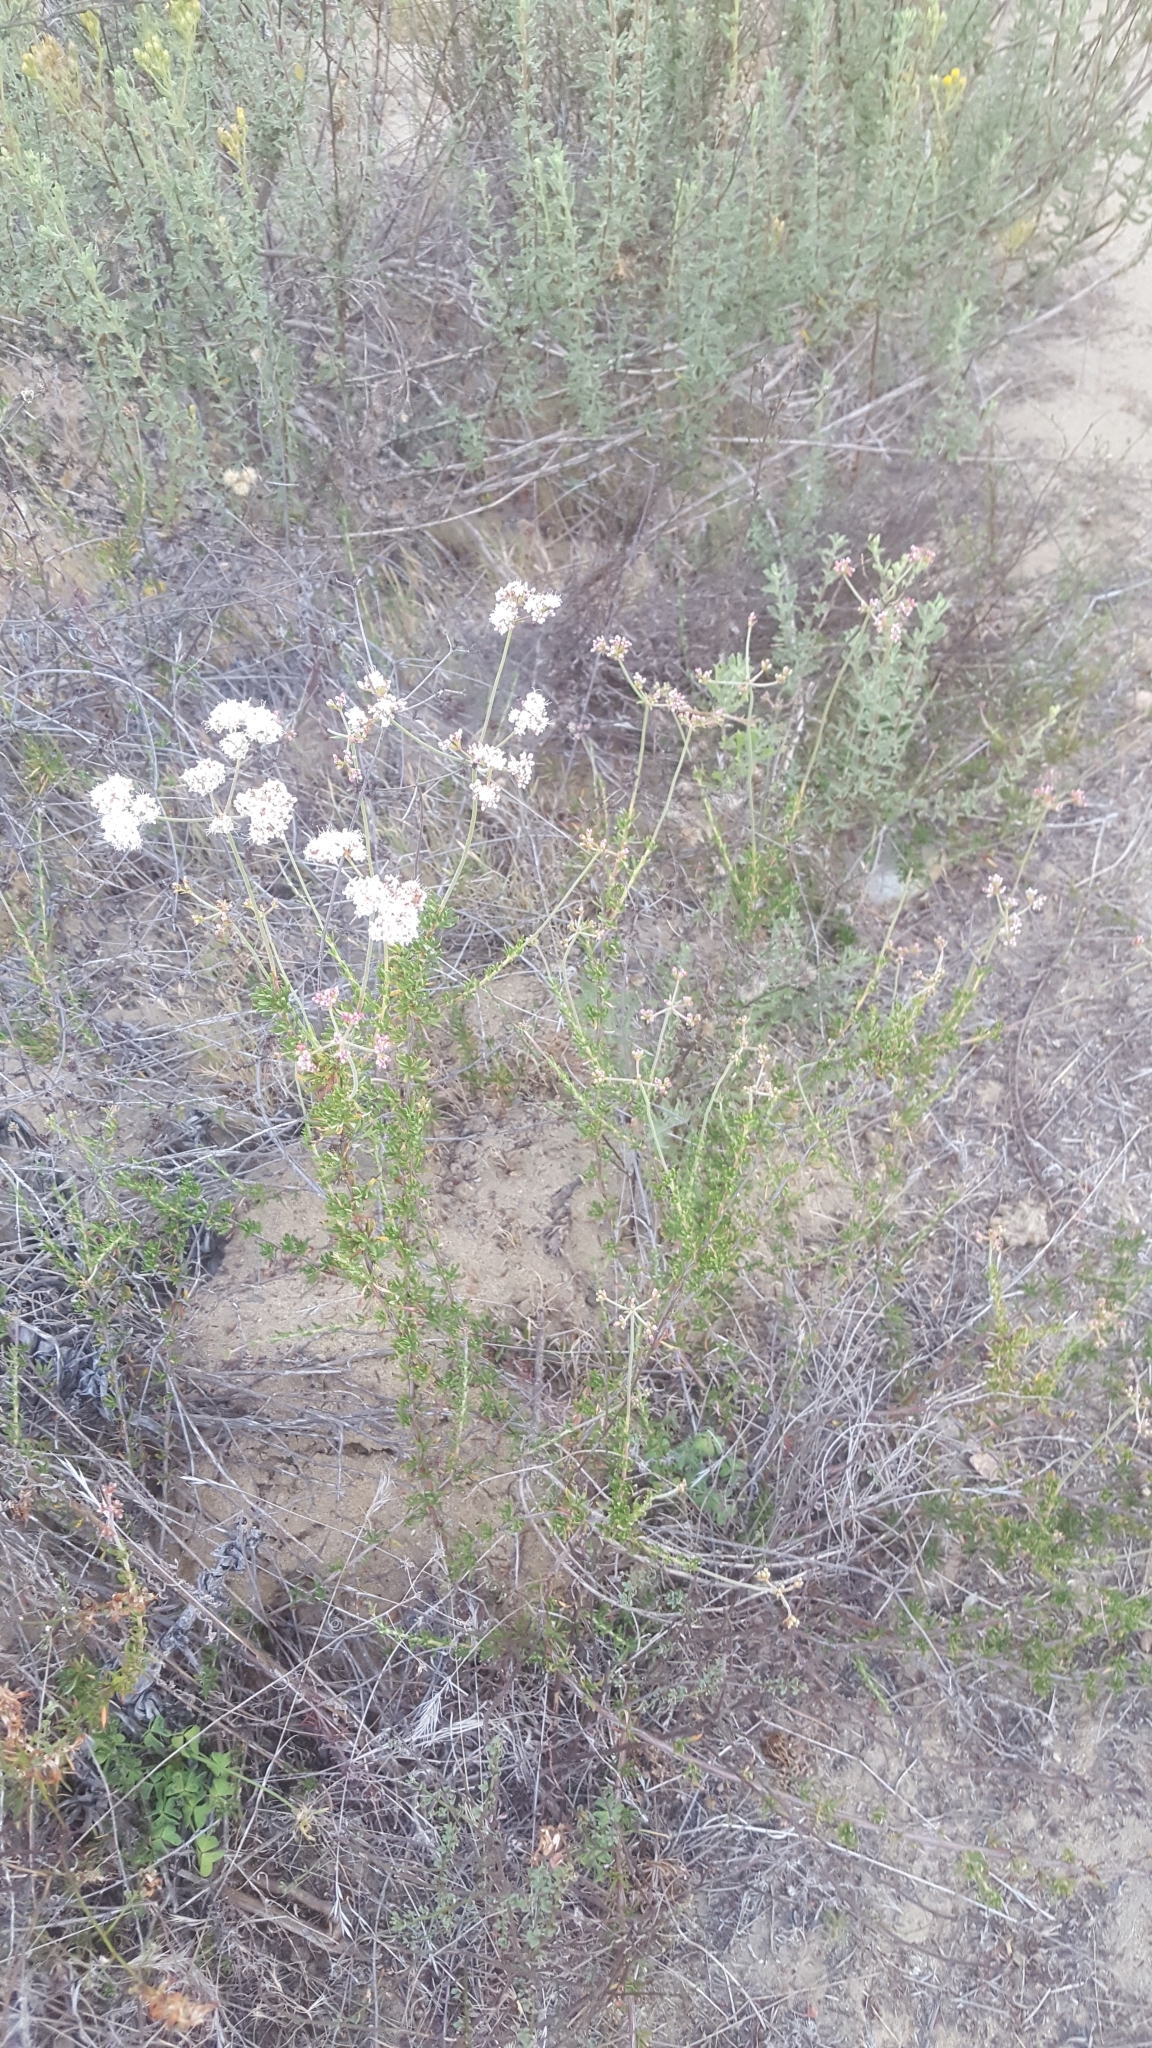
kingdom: Plantae
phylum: Tracheophyta
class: Magnoliopsida
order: Caryophyllales
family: Polygonaceae
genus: Eriogonum
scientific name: Eriogonum fasciculatum
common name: California wild buckwheat
